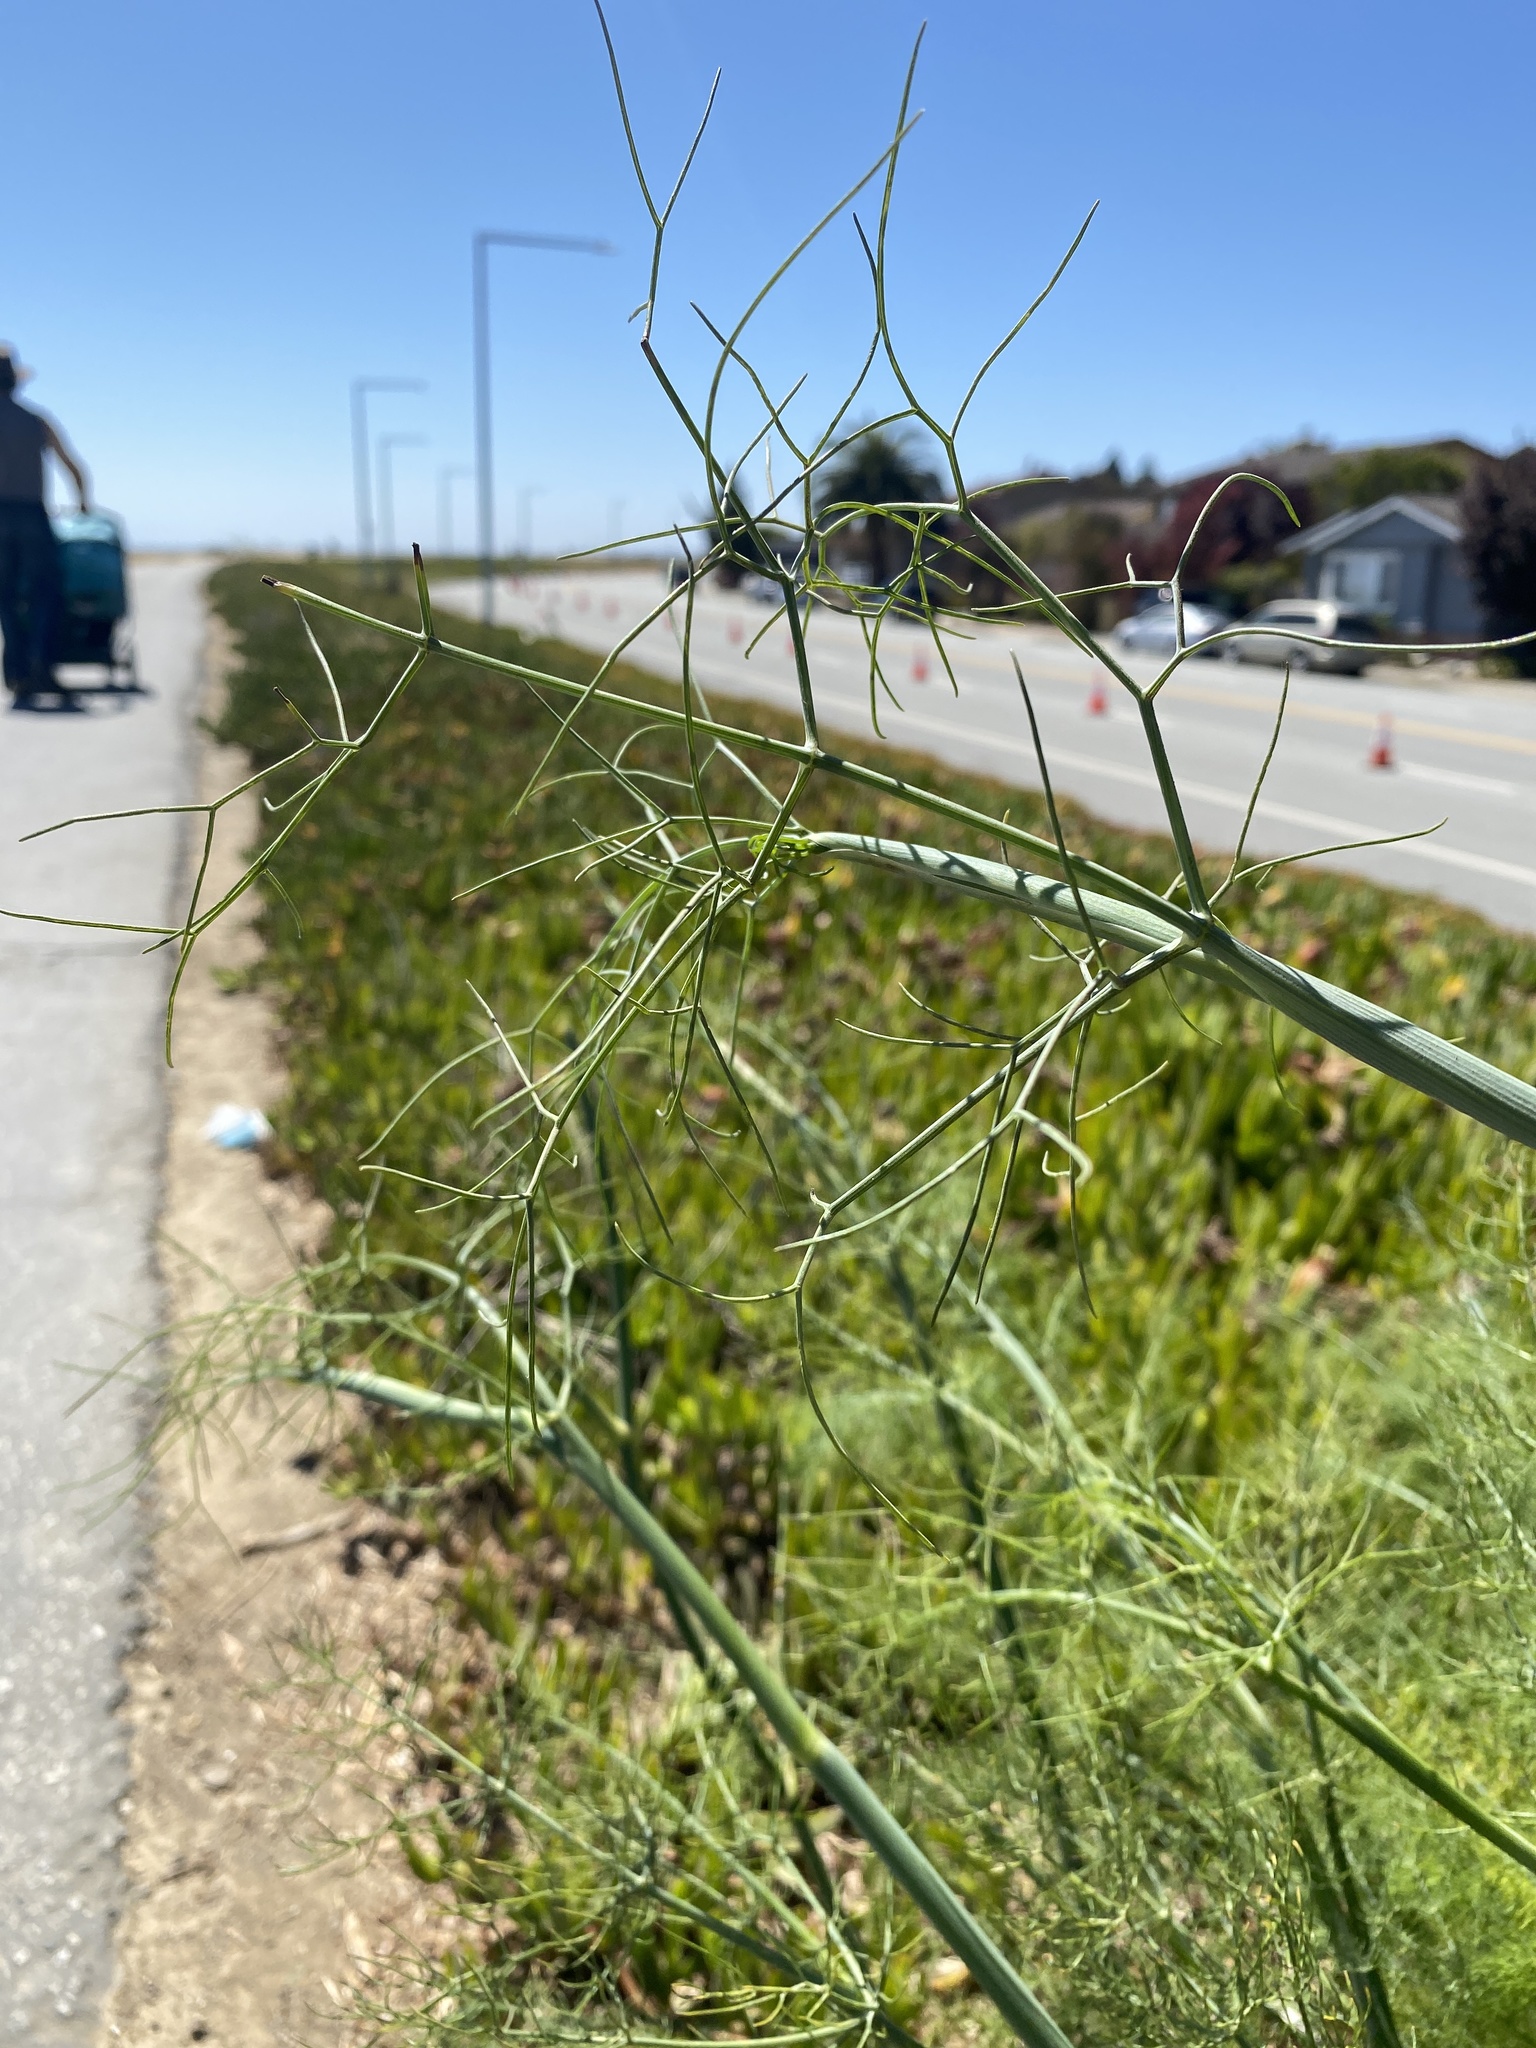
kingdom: Plantae
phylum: Tracheophyta
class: Magnoliopsida
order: Apiales
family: Apiaceae
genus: Foeniculum
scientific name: Foeniculum vulgare
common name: Fennel
